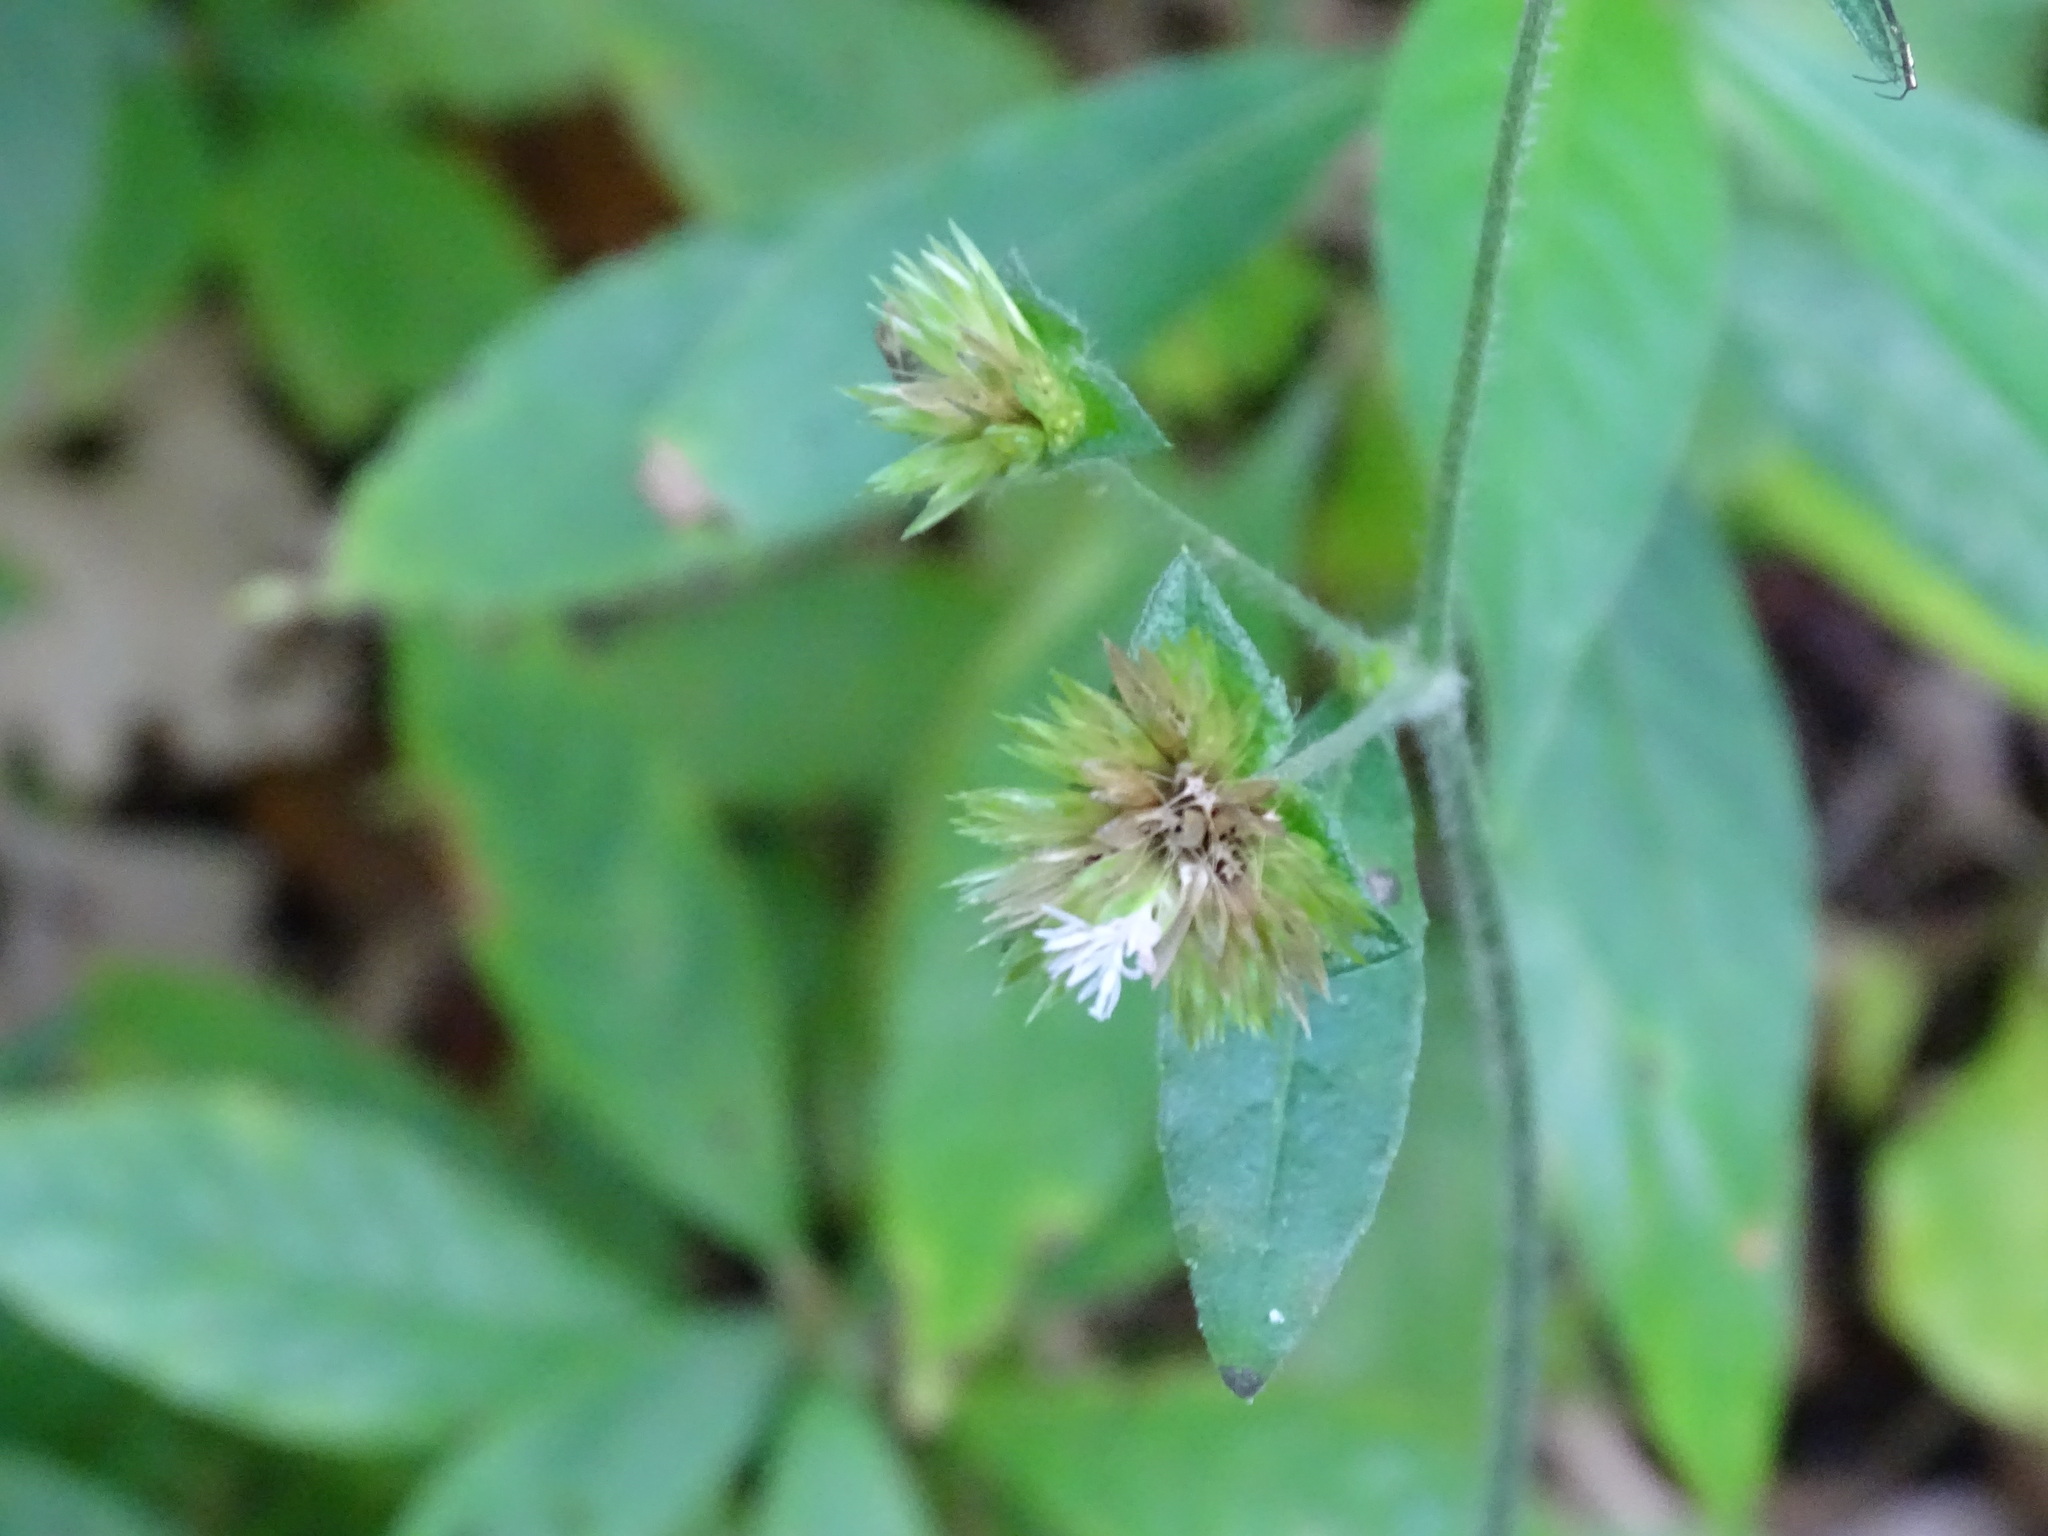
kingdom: Plantae
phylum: Tracheophyta
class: Magnoliopsida
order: Asterales
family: Asteraceae
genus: Elephantopus
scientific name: Elephantopus mollis
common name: Soft elephantsfoot
